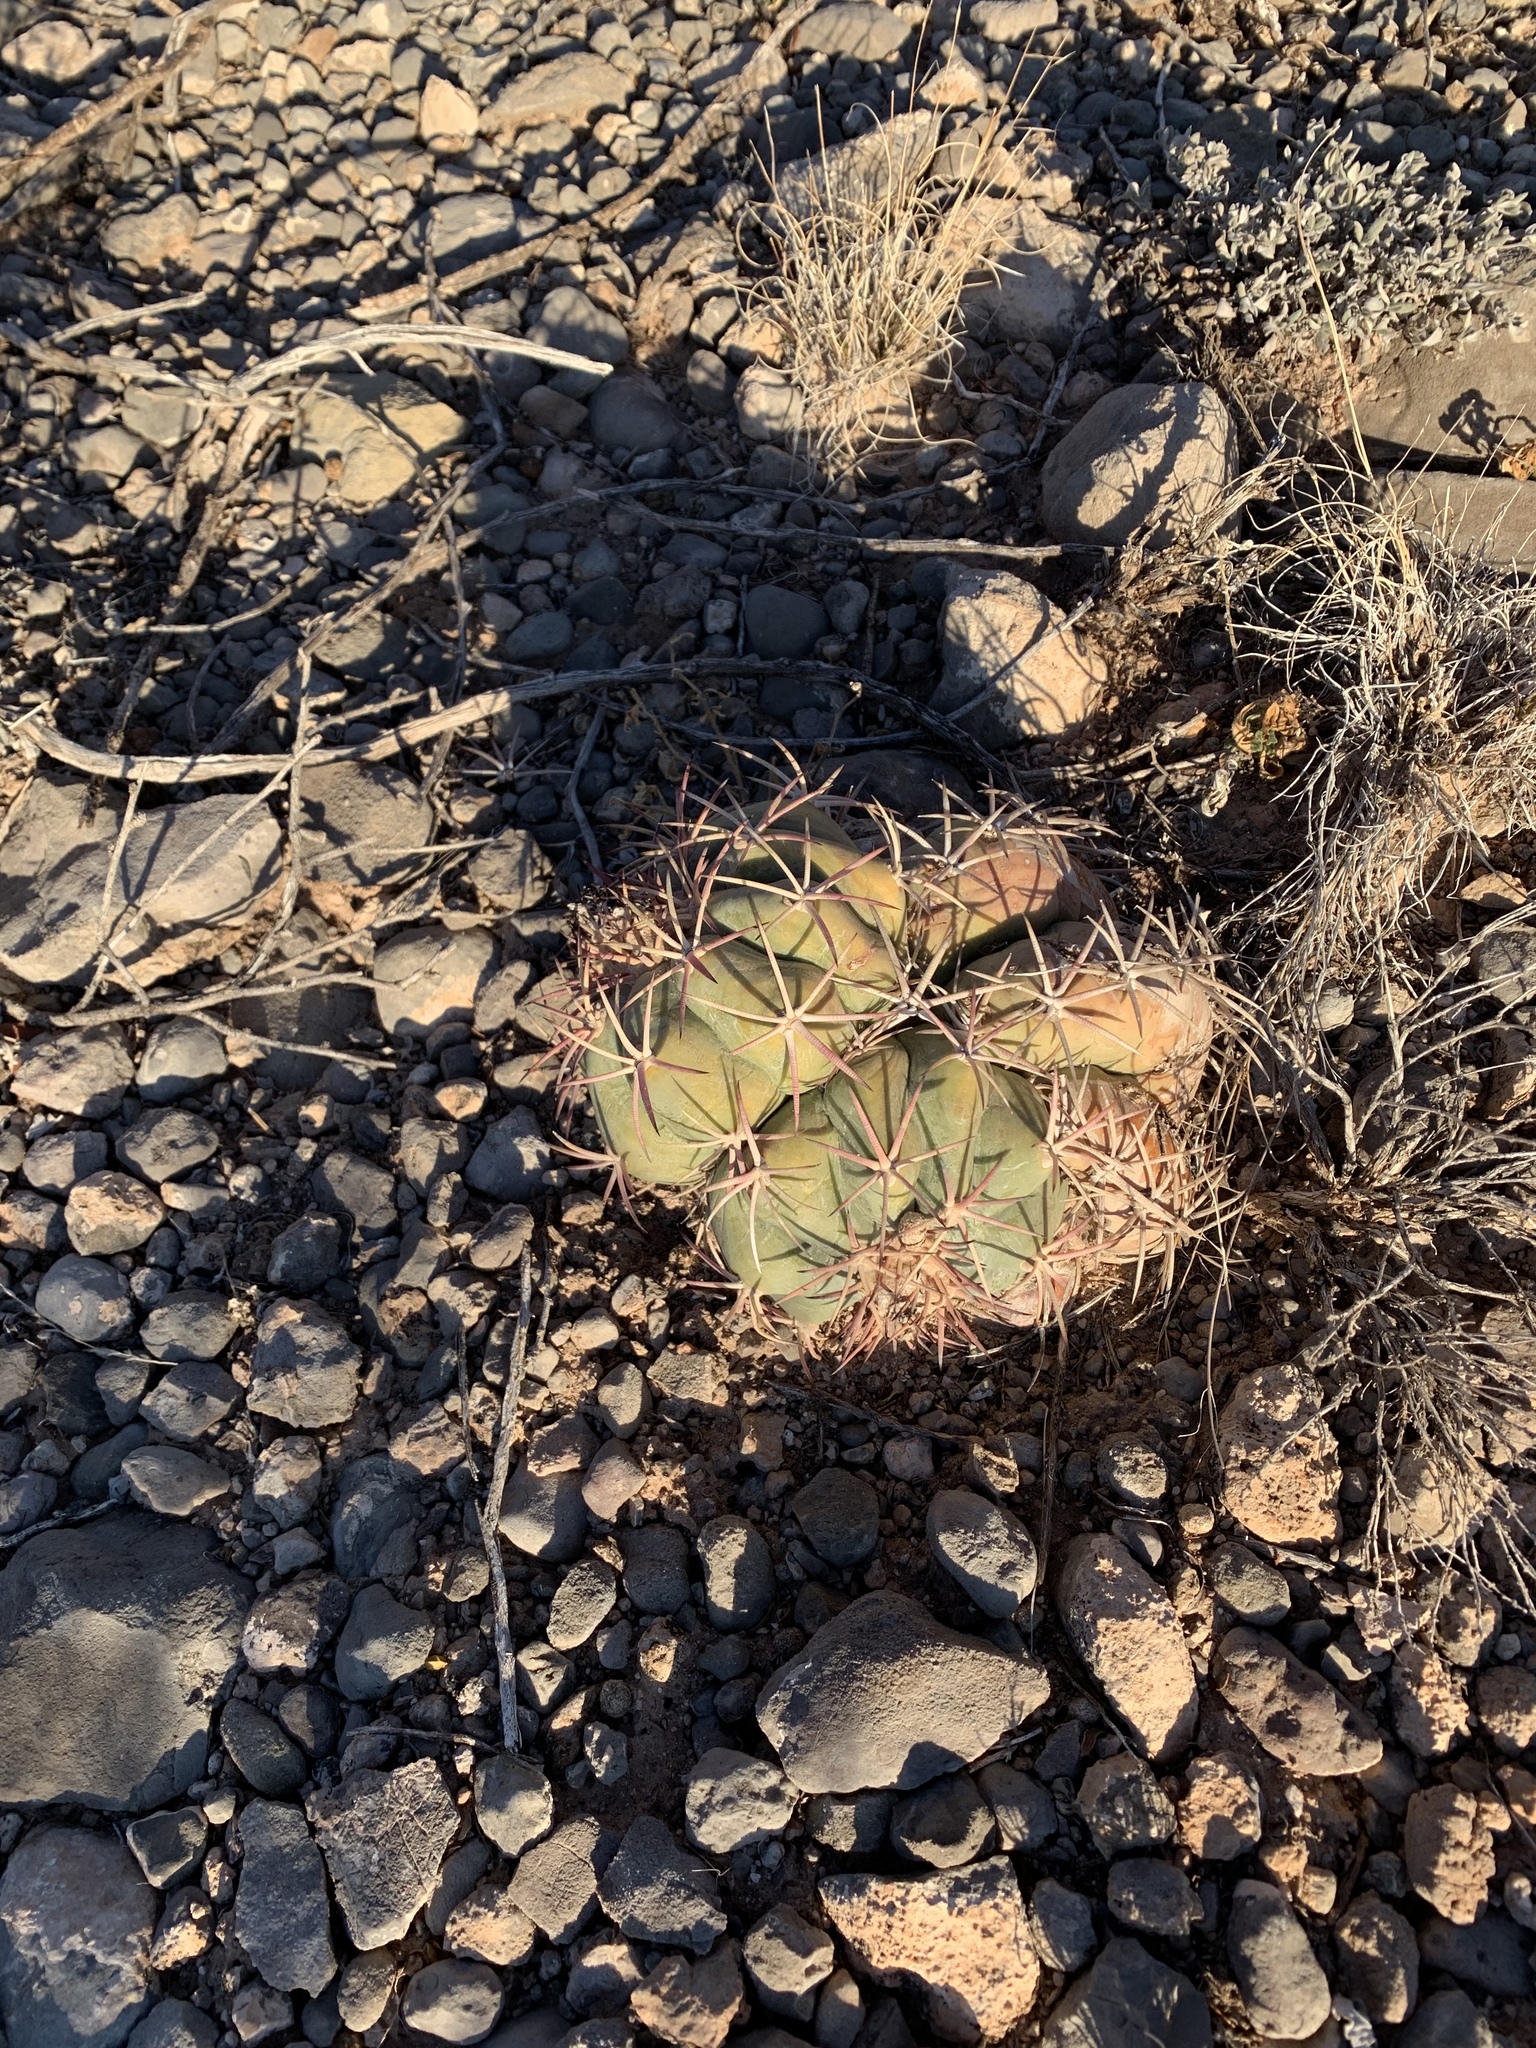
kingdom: Plantae
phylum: Tracheophyta
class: Magnoliopsida
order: Caryophyllales
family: Cactaceae
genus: Echinocactus
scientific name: Echinocactus horizonthalonius
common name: Devilshead
